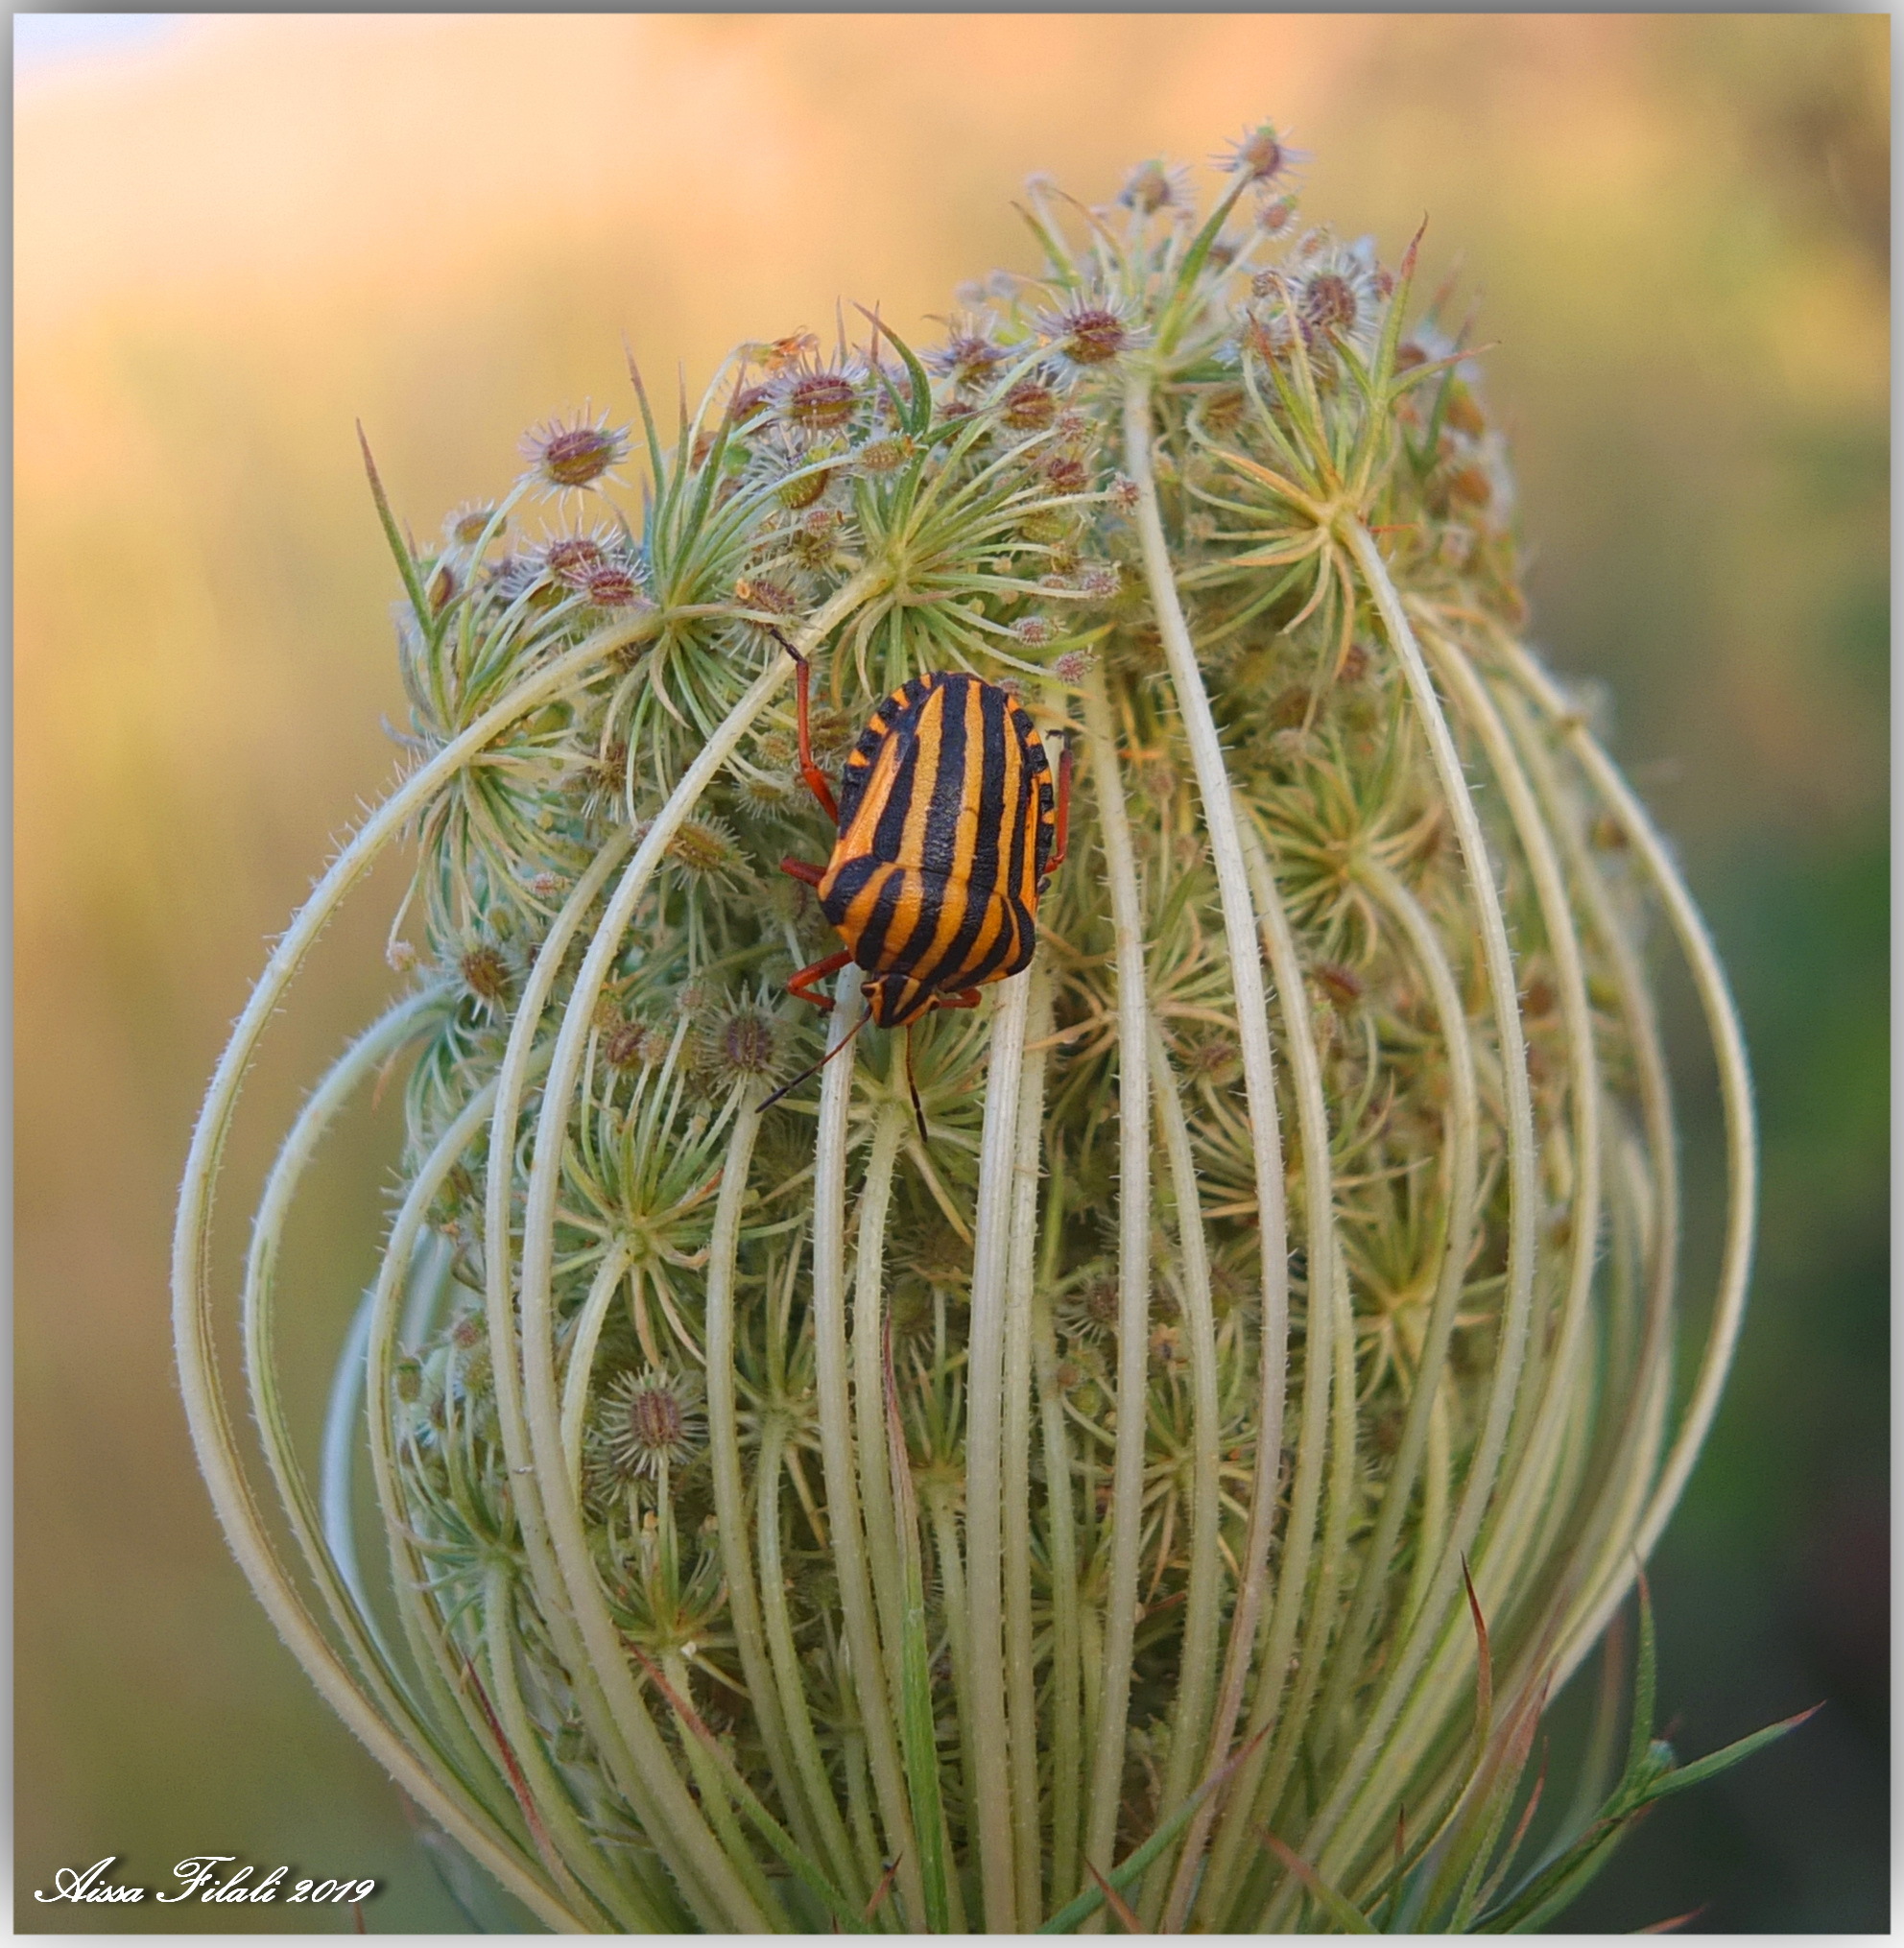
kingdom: Animalia
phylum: Arthropoda
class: Insecta
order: Hemiptera
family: Pentatomidae
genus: Graphosoma
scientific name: Graphosoma lineatum
